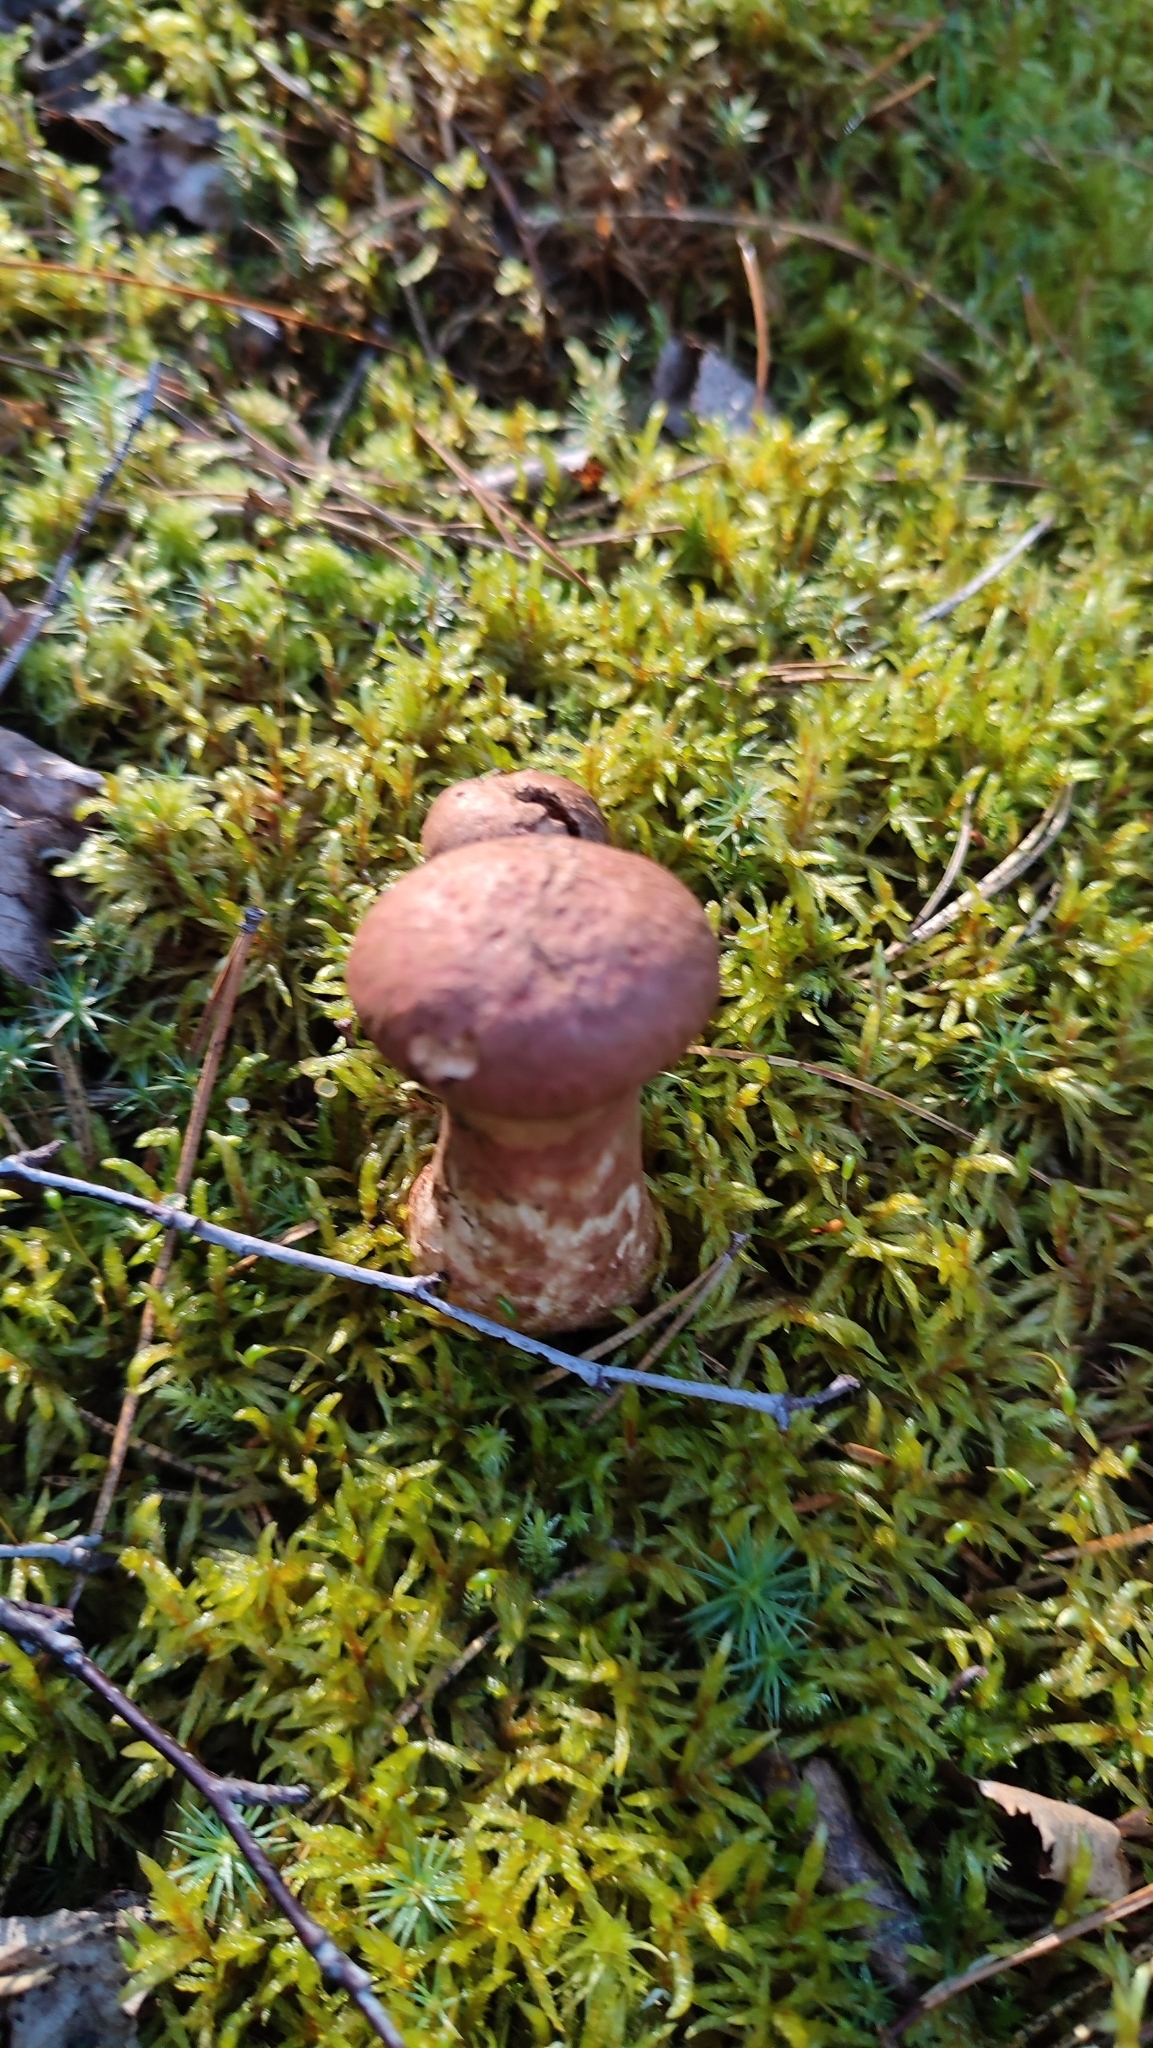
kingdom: Fungi
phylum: Basidiomycota
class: Agaricomycetes
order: Agaricales
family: Cortinariaceae
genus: Cortinarius
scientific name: Cortinarius armillatus
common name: Red banded webcap
